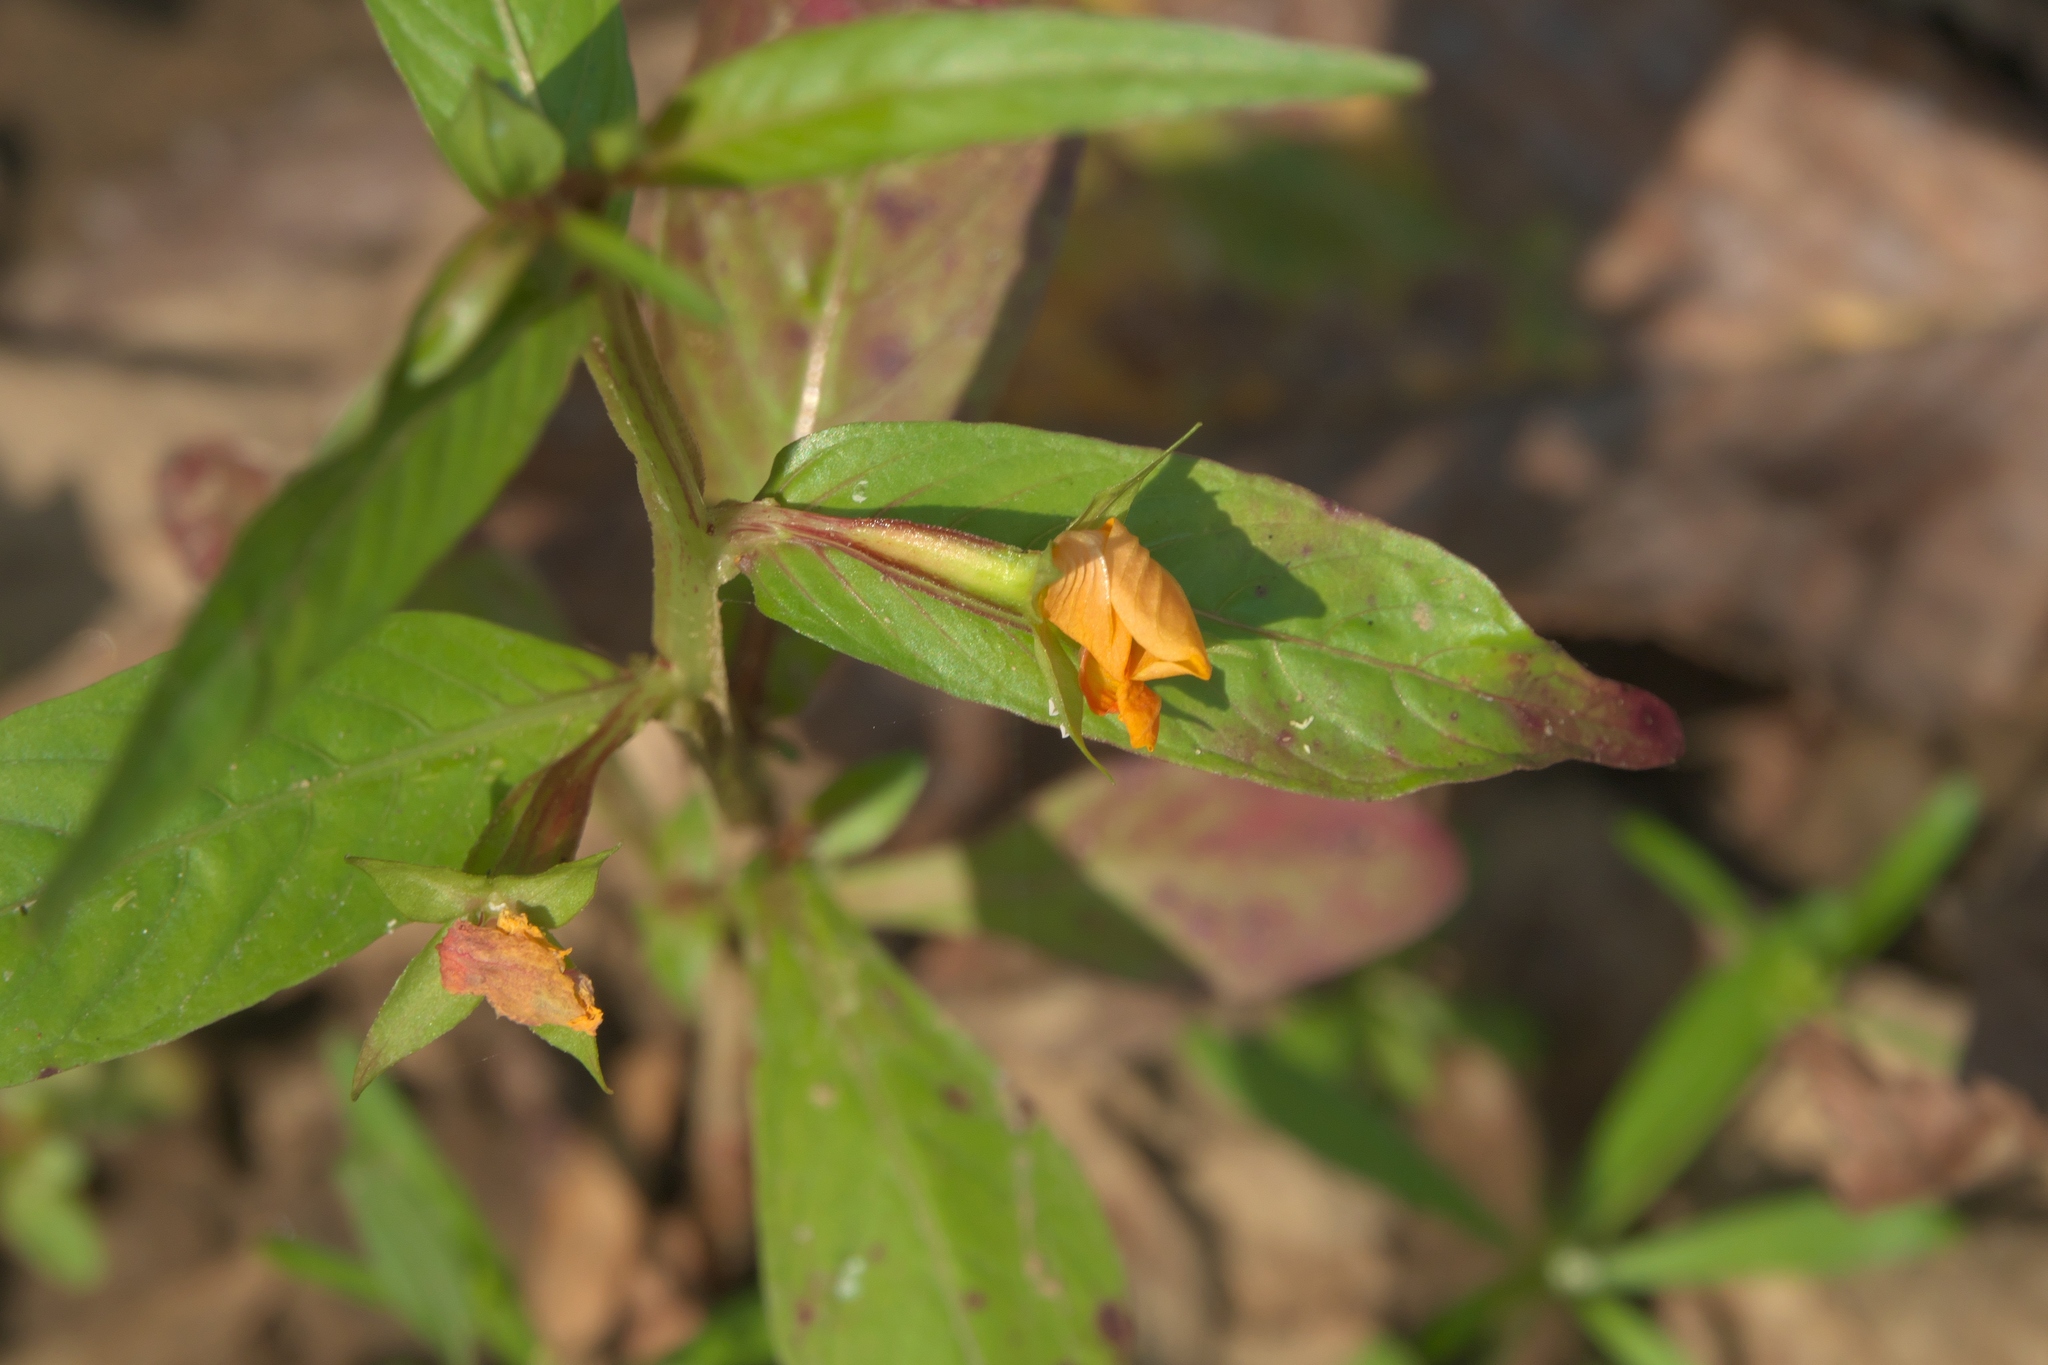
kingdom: Plantae
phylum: Tracheophyta
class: Magnoliopsida
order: Myrtales
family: Onagraceae
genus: Ludwigia
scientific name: Ludwigia decurrens
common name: Winged water-primrose
